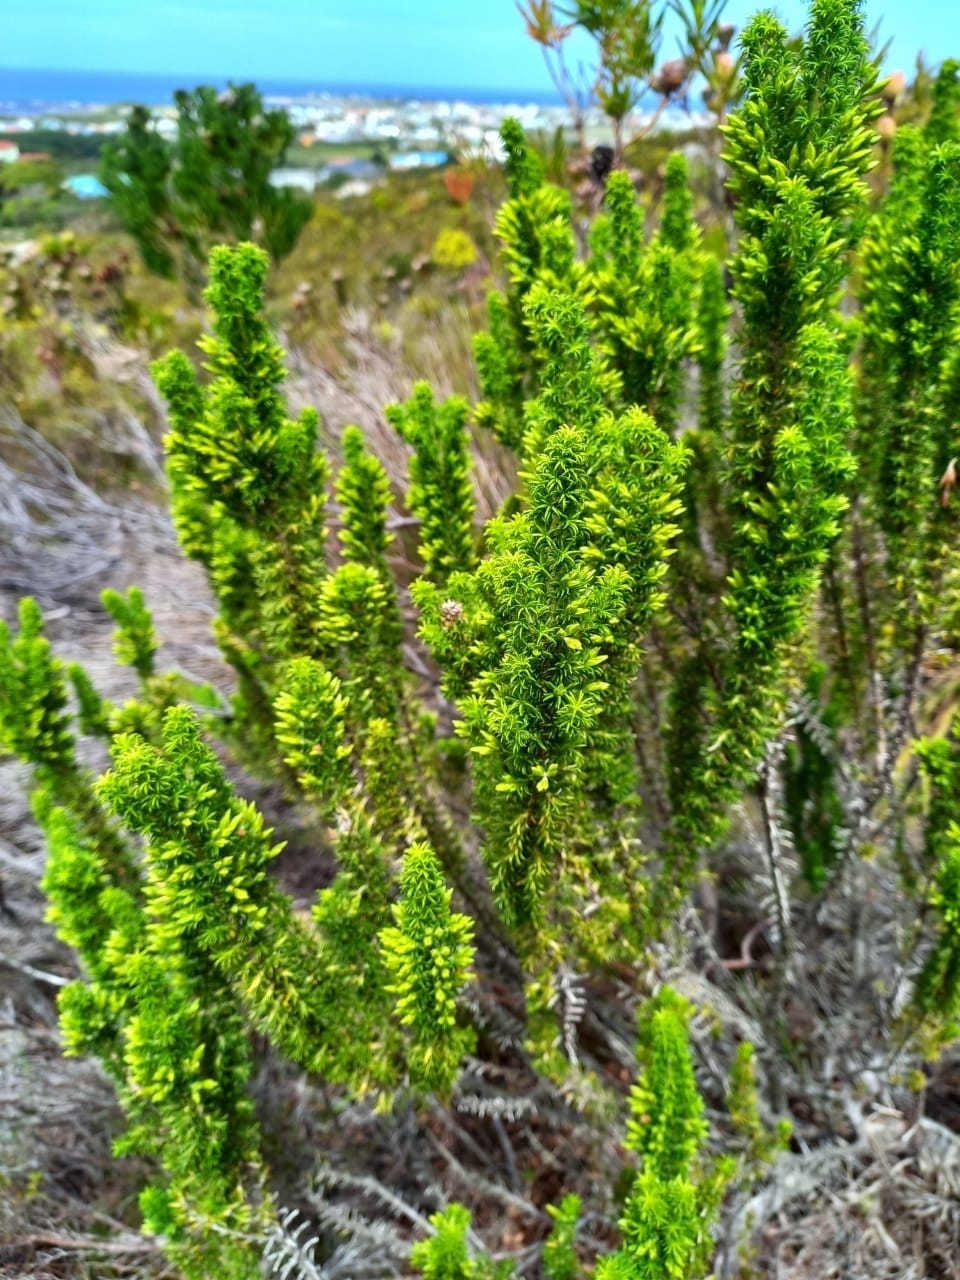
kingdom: Plantae
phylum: Tracheophyta
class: Magnoliopsida
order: Ericales
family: Ericaceae
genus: Erica
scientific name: Erica coccinea
